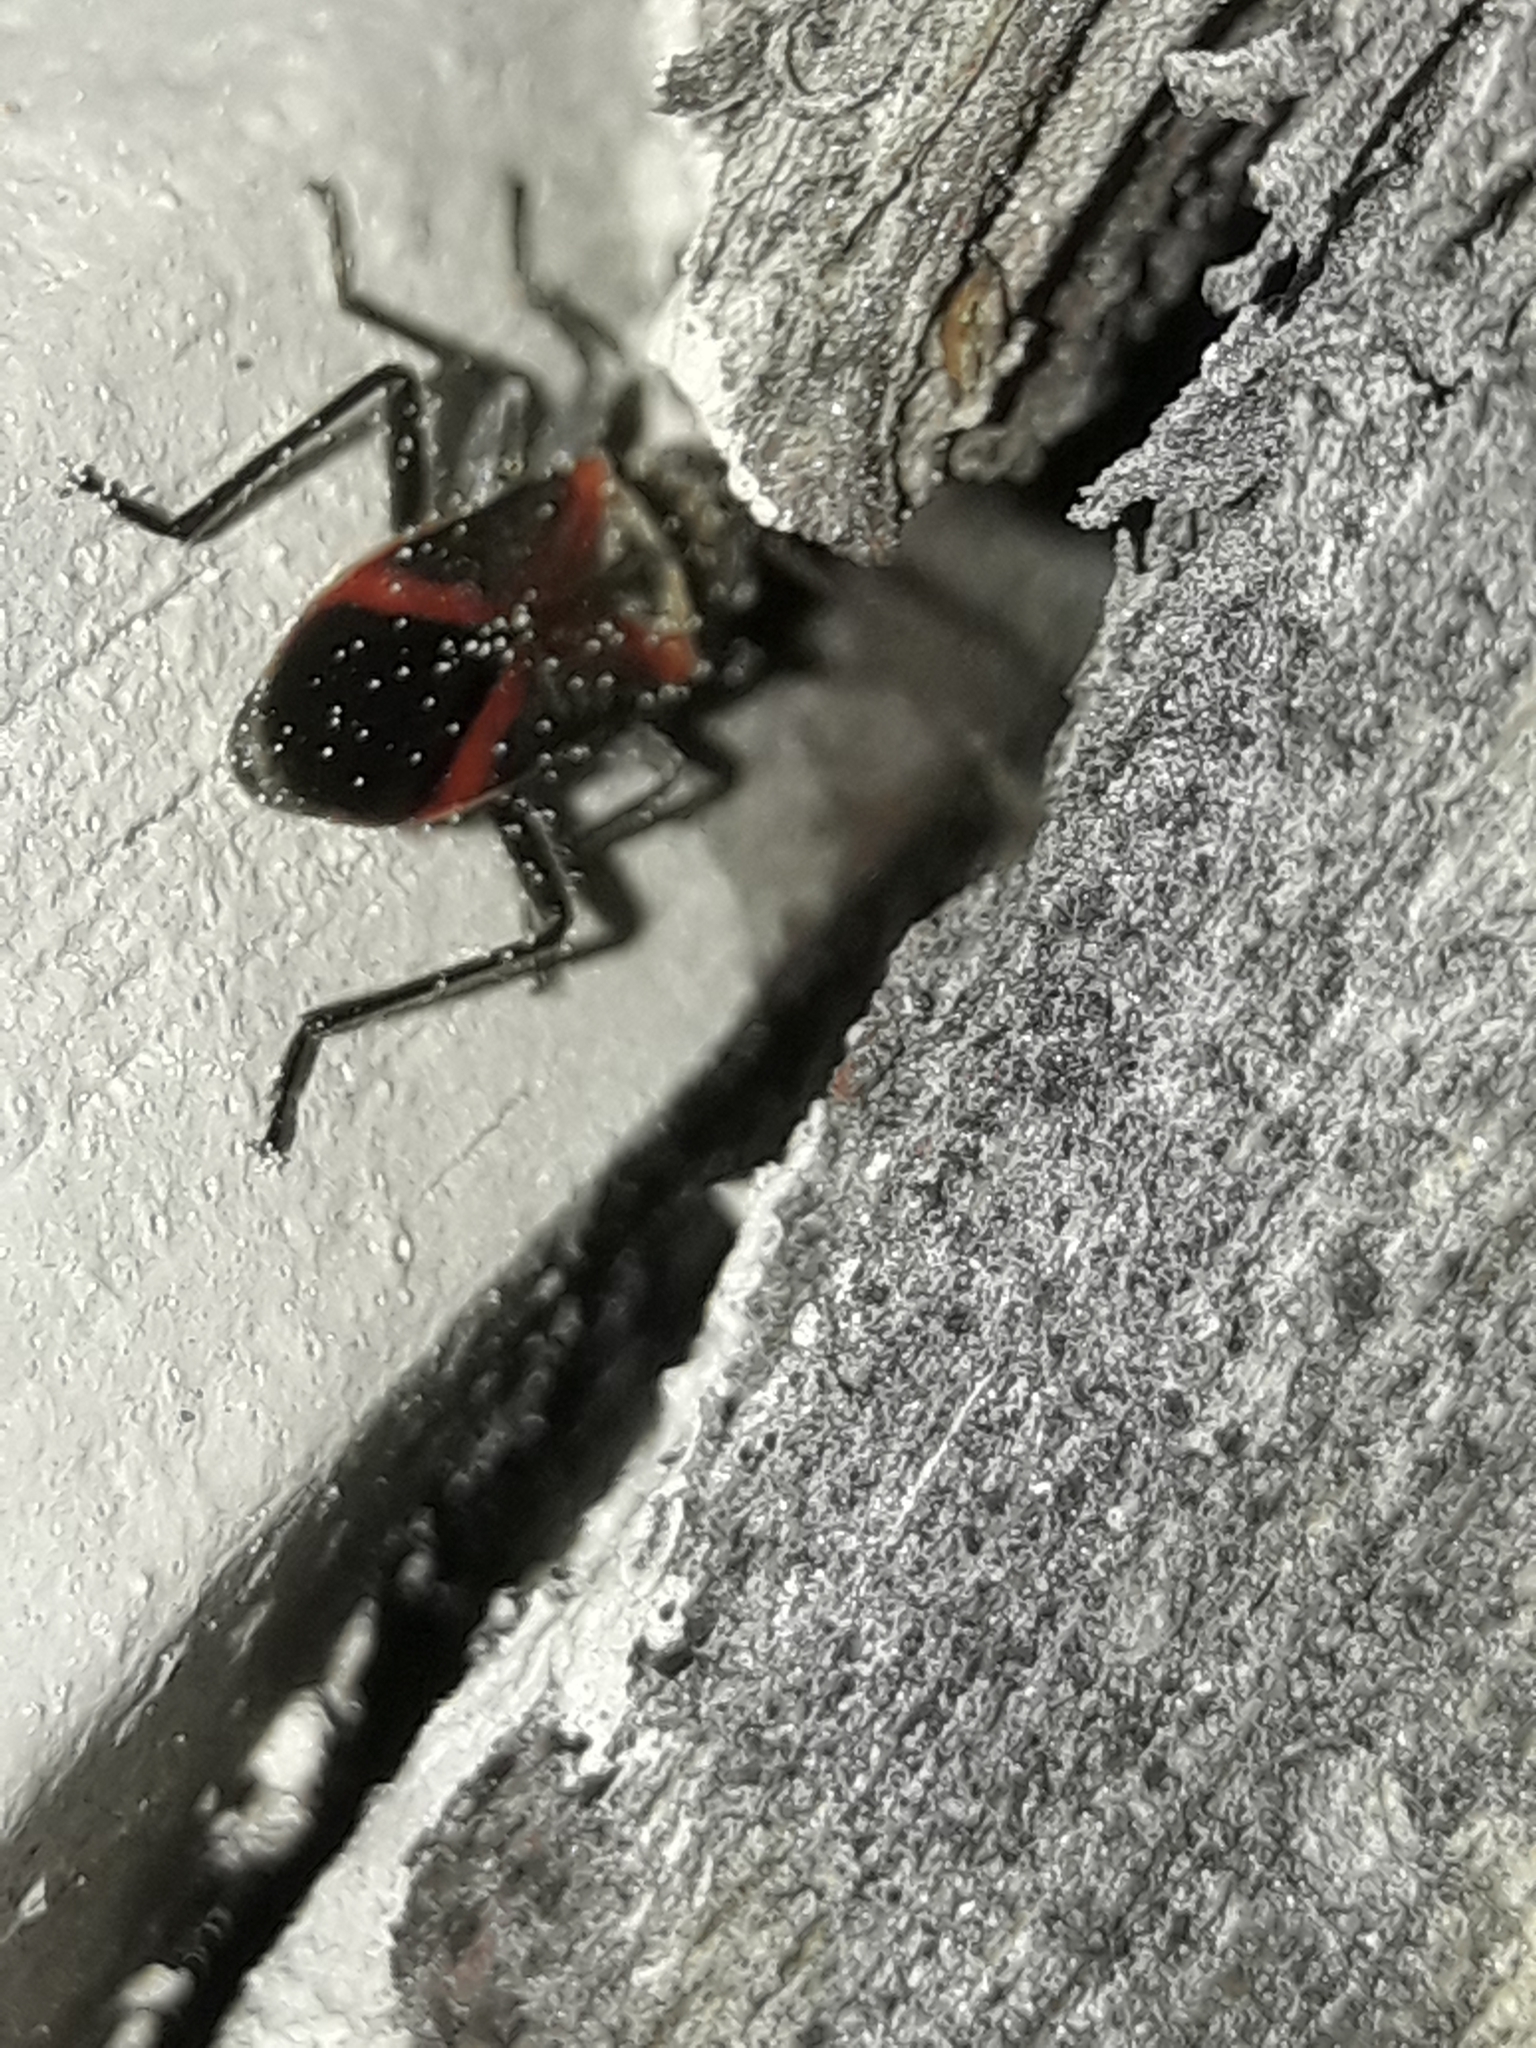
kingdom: Animalia
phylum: Arthropoda
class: Insecta
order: Hemiptera
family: Lygaeidae
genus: Arocatus
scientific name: Arocatus rusticus
